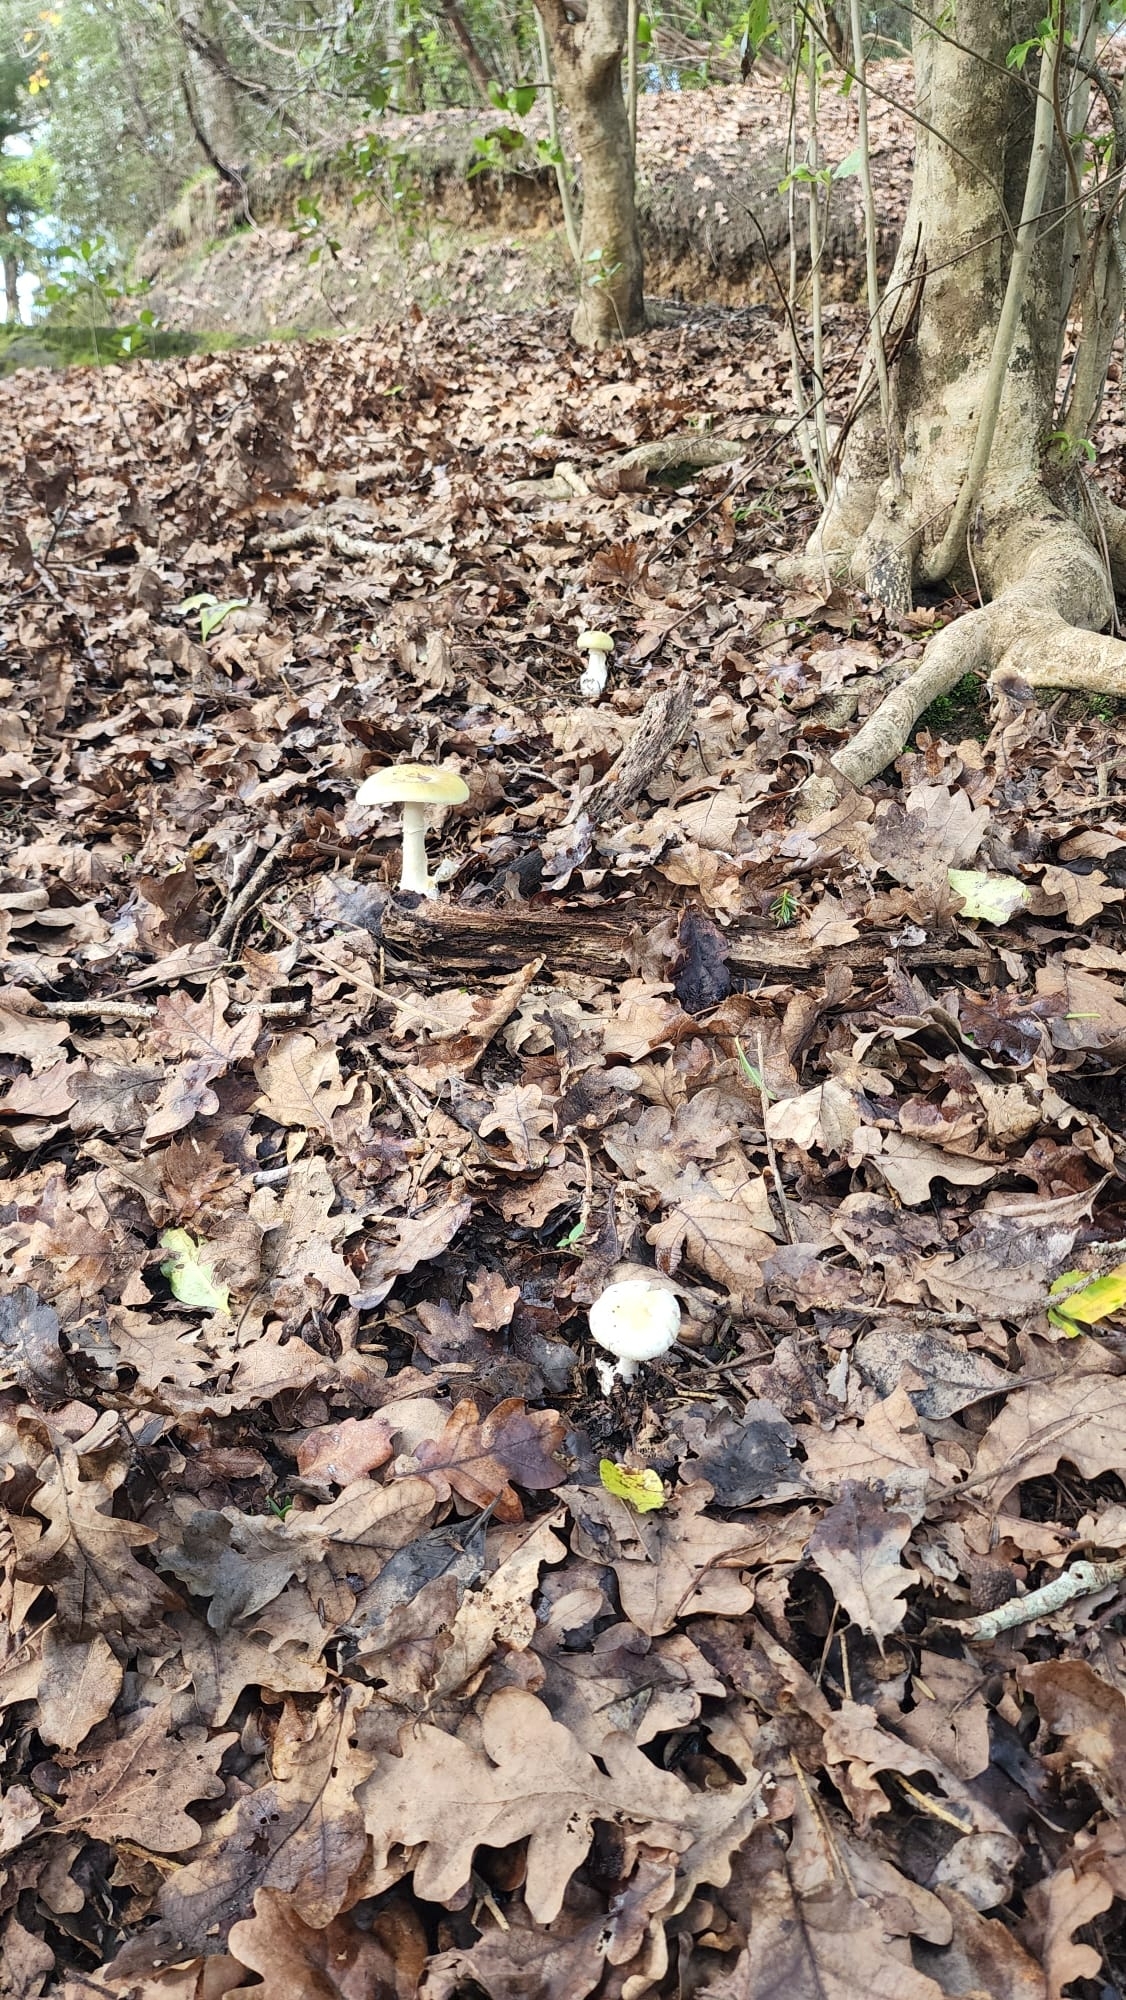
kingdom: Fungi
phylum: Basidiomycota
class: Agaricomycetes
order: Agaricales
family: Amanitaceae
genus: Amanita
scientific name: Amanita phalloides
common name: Death cap
